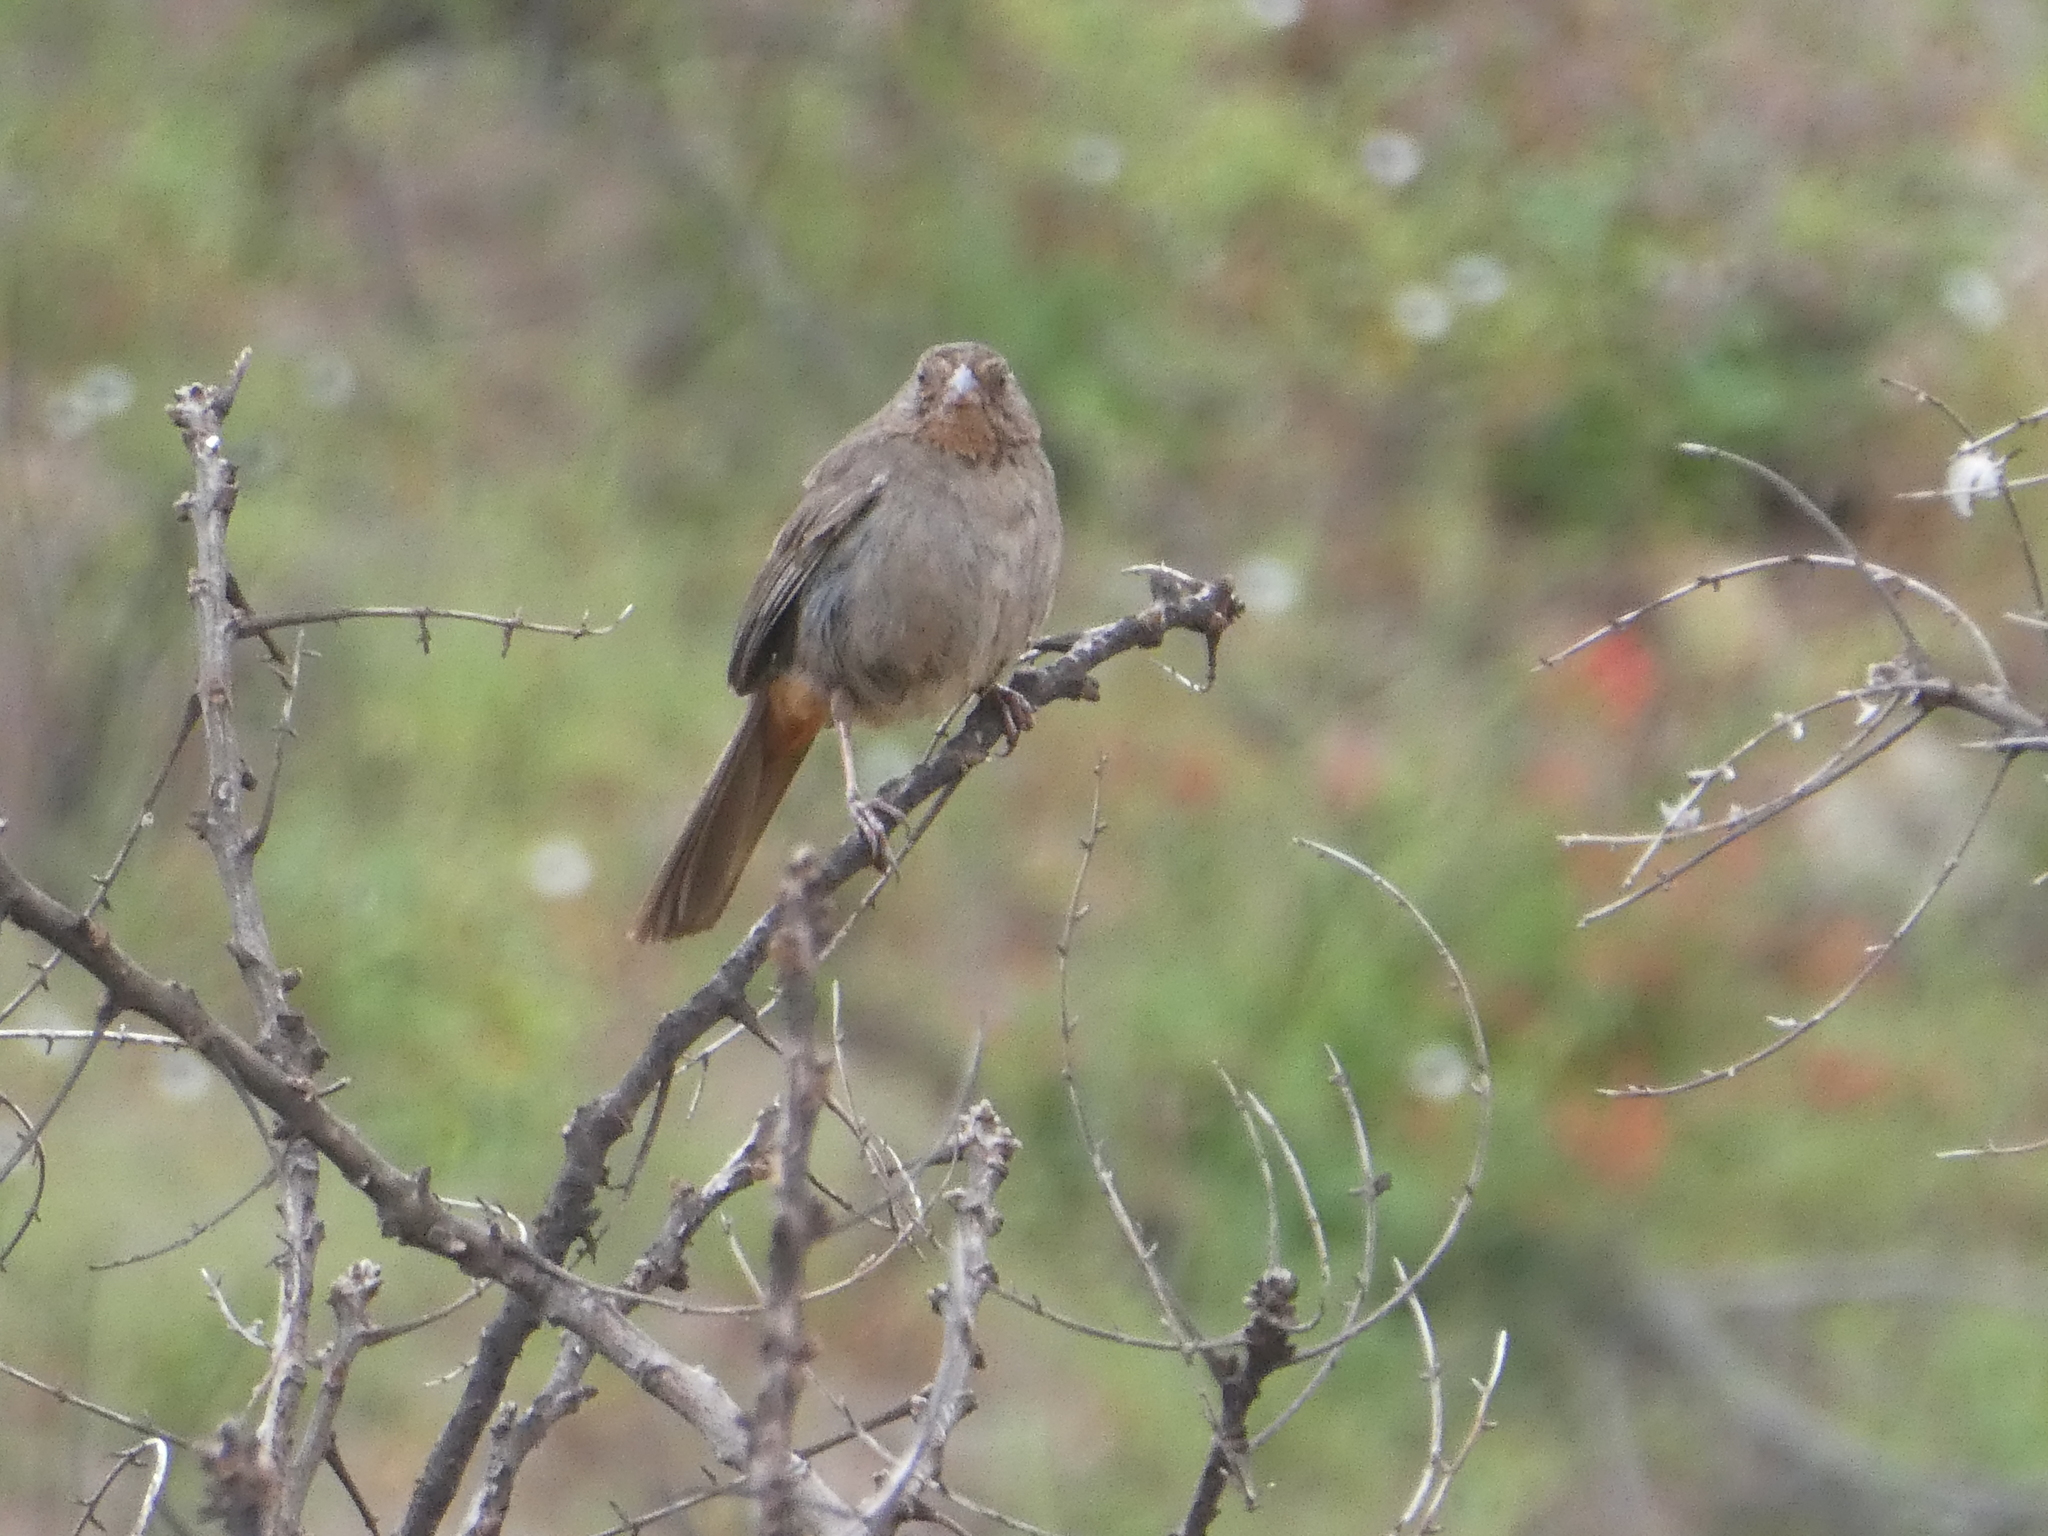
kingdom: Animalia
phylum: Chordata
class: Aves
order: Passeriformes
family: Passerellidae
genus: Melozone
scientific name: Melozone crissalis
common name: California towhee
